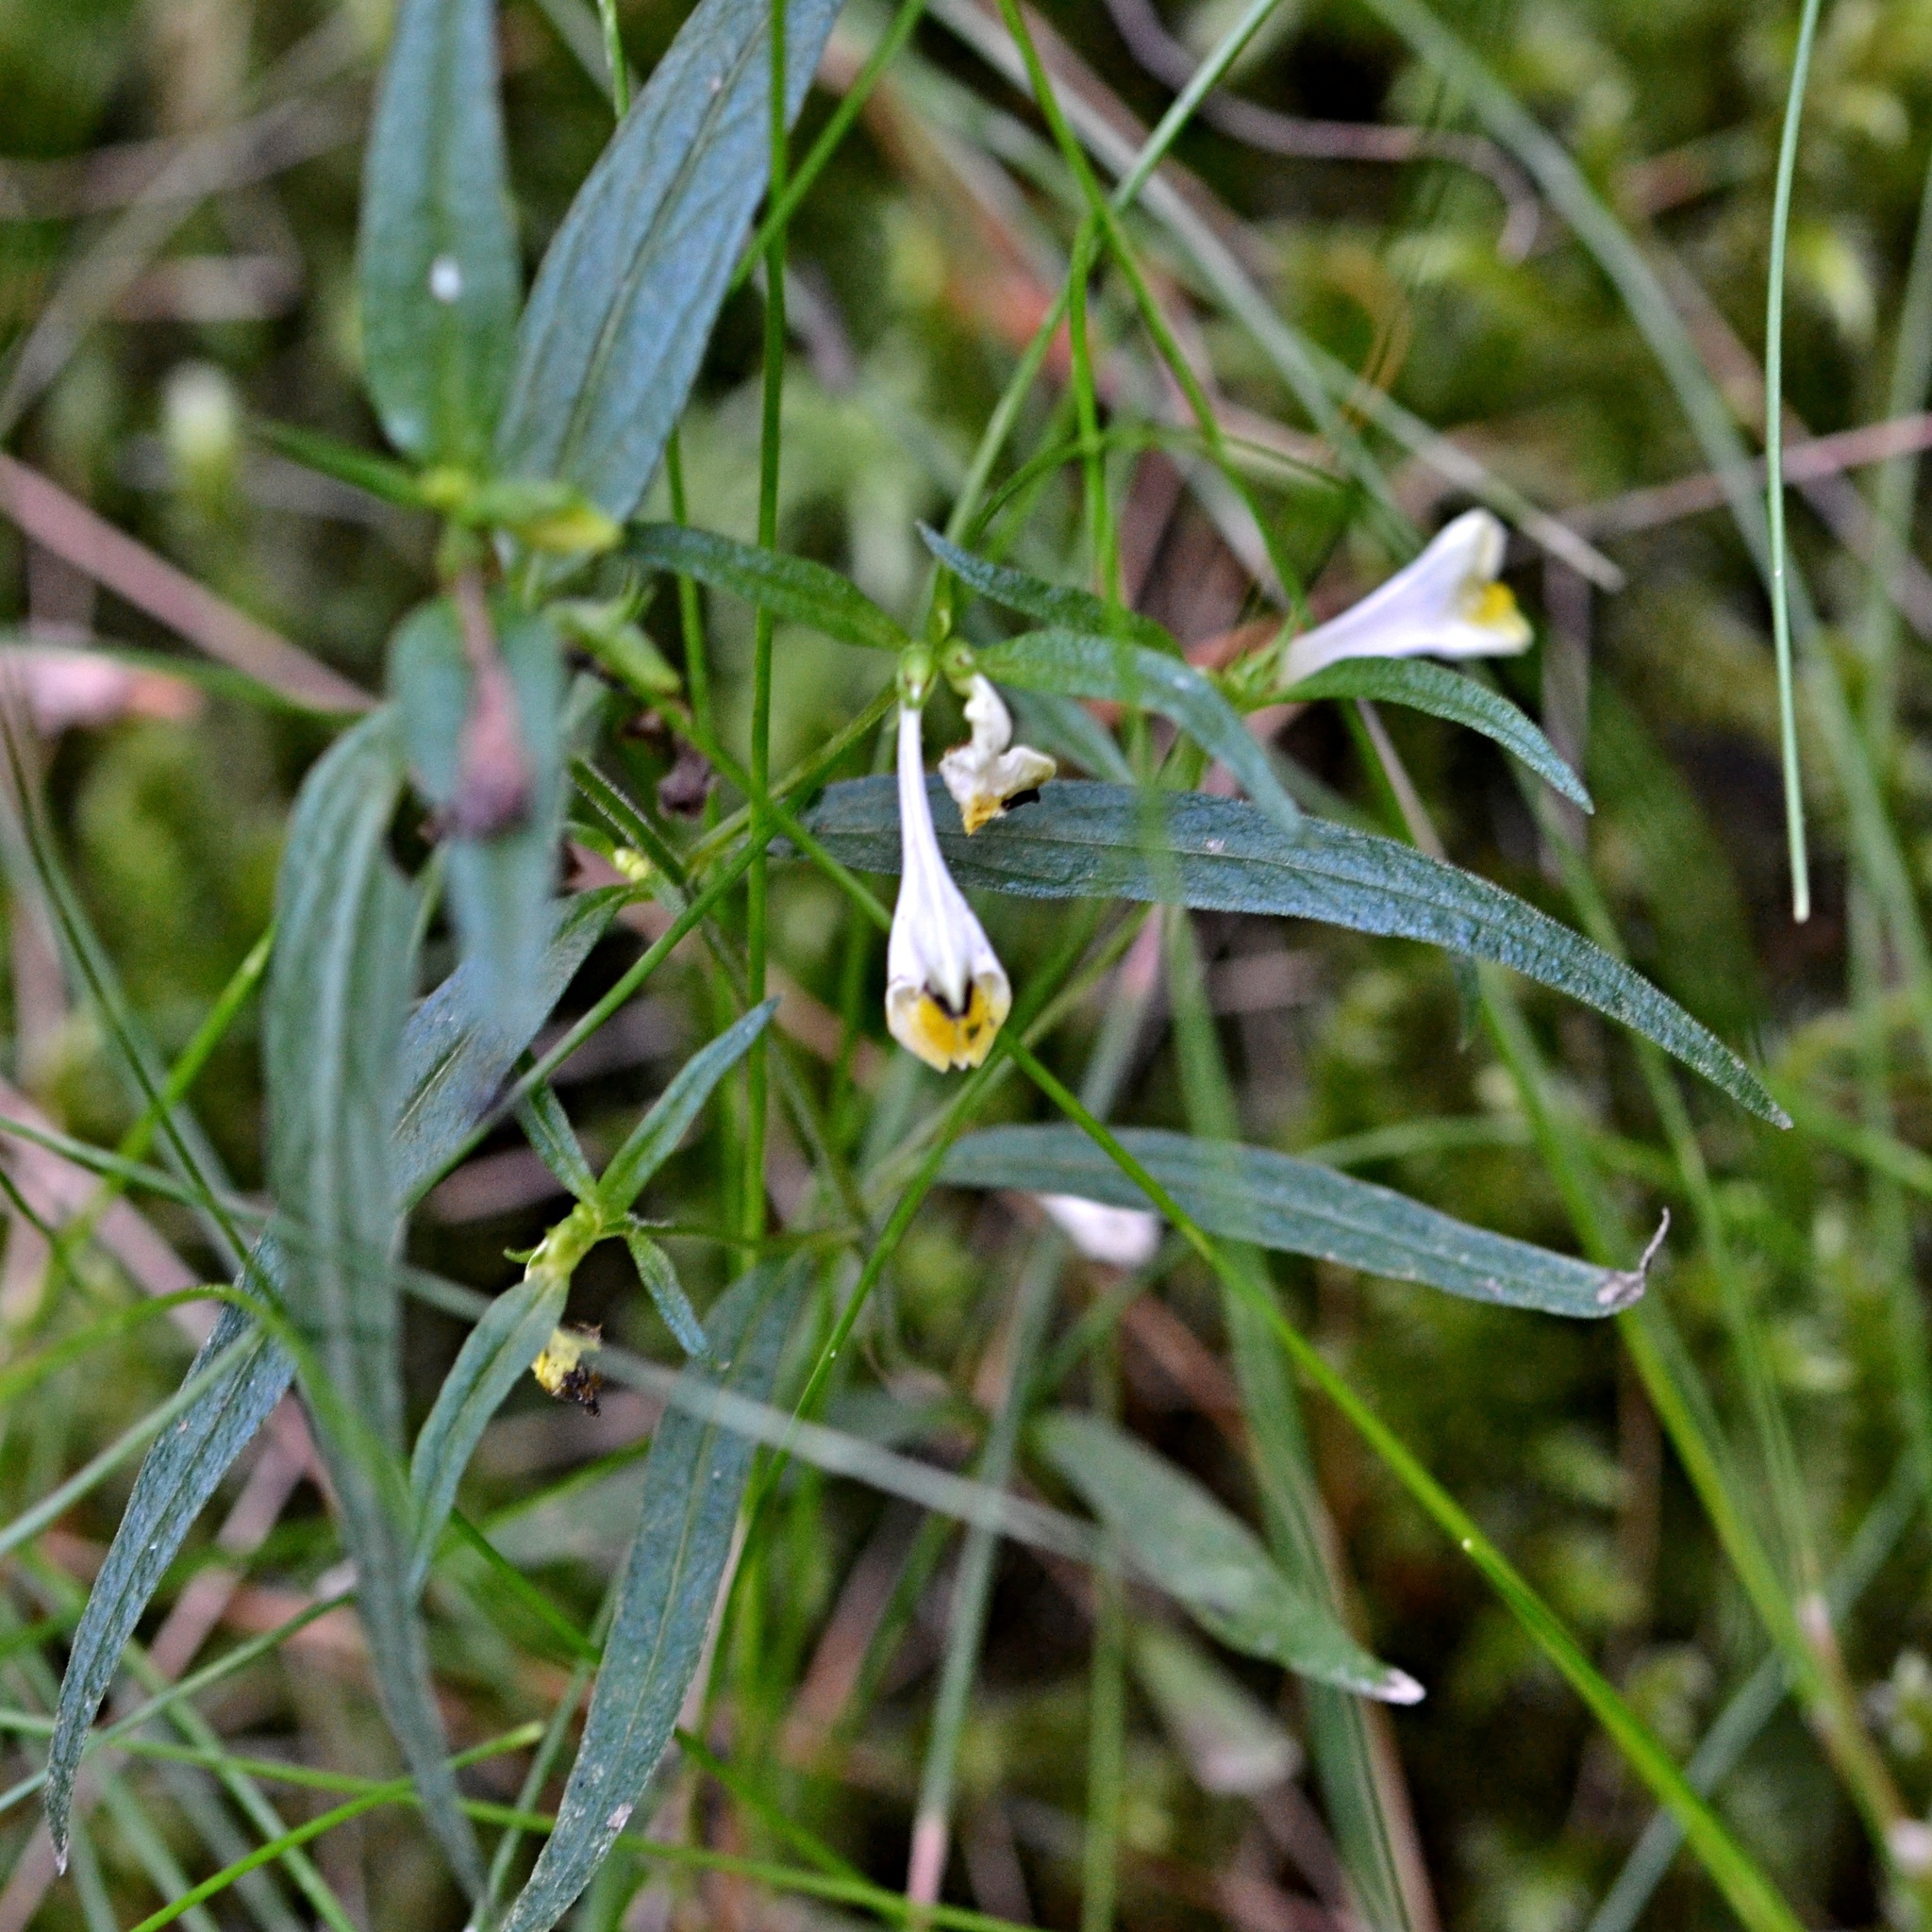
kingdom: Plantae
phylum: Tracheophyta
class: Magnoliopsida
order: Lamiales
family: Orobanchaceae
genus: Melampyrum
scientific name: Melampyrum pratense
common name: Common cow-wheat
